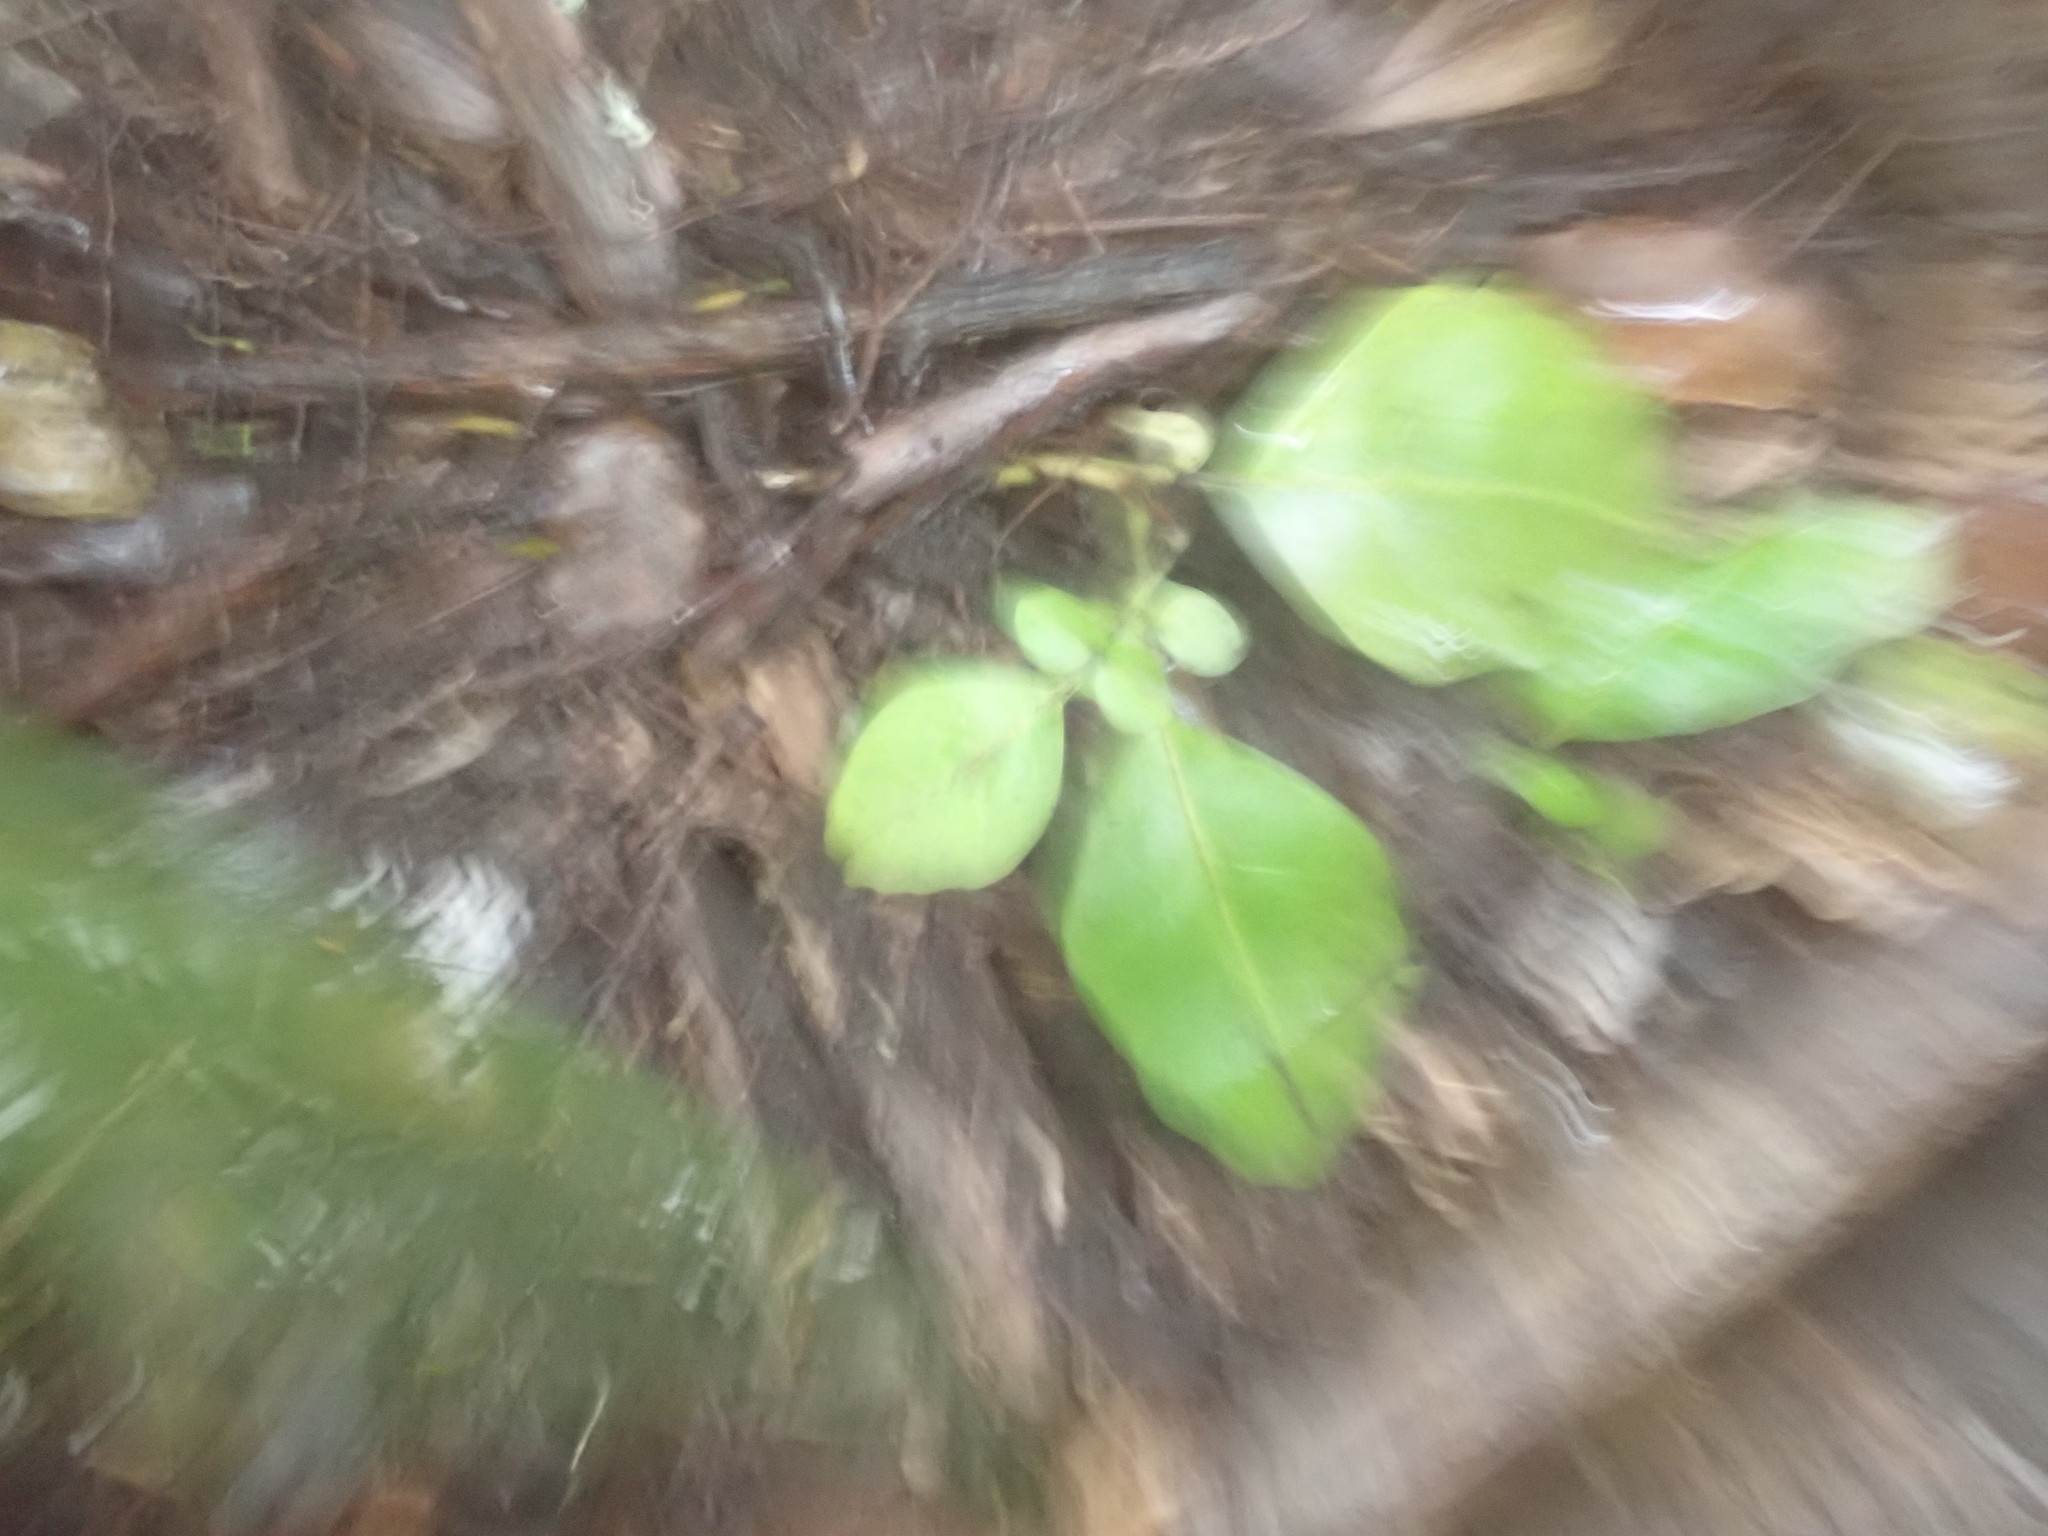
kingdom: Plantae
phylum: Tracheophyta
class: Magnoliopsida
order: Sapindales
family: Meliaceae
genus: Didymocheton
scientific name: Didymocheton spectabilis
